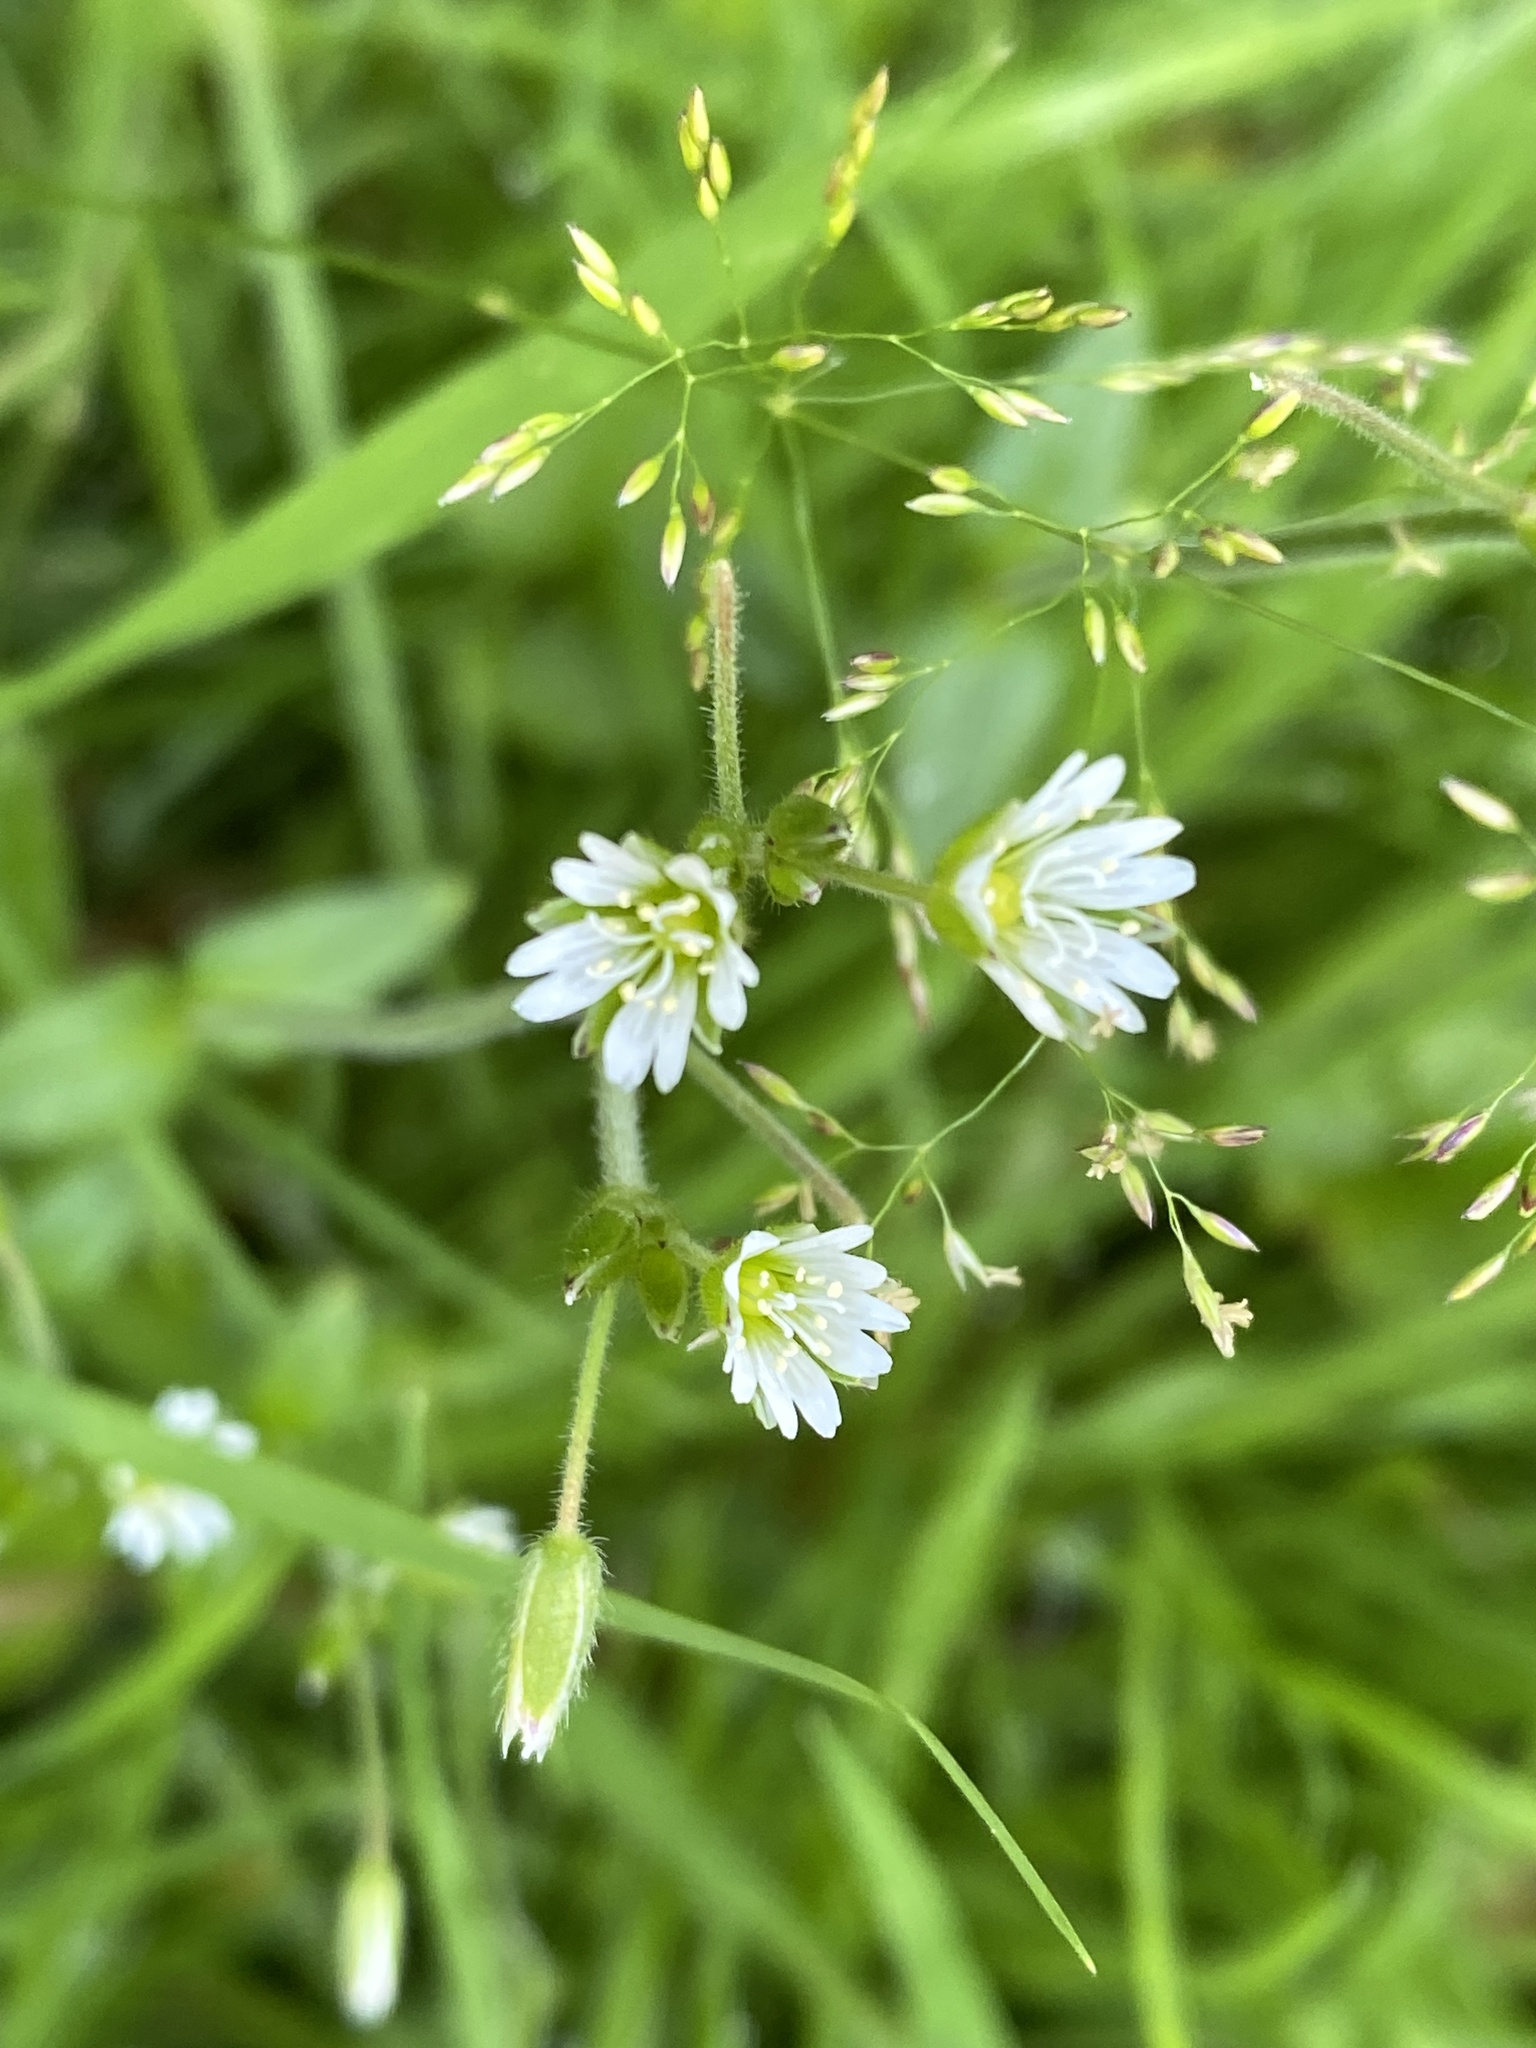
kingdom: Plantae
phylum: Tracheophyta
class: Magnoliopsida
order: Caryophyllales
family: Caryophyllaceae
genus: Cerastium
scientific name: Cerastium fontanum
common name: Common mouse-ear
